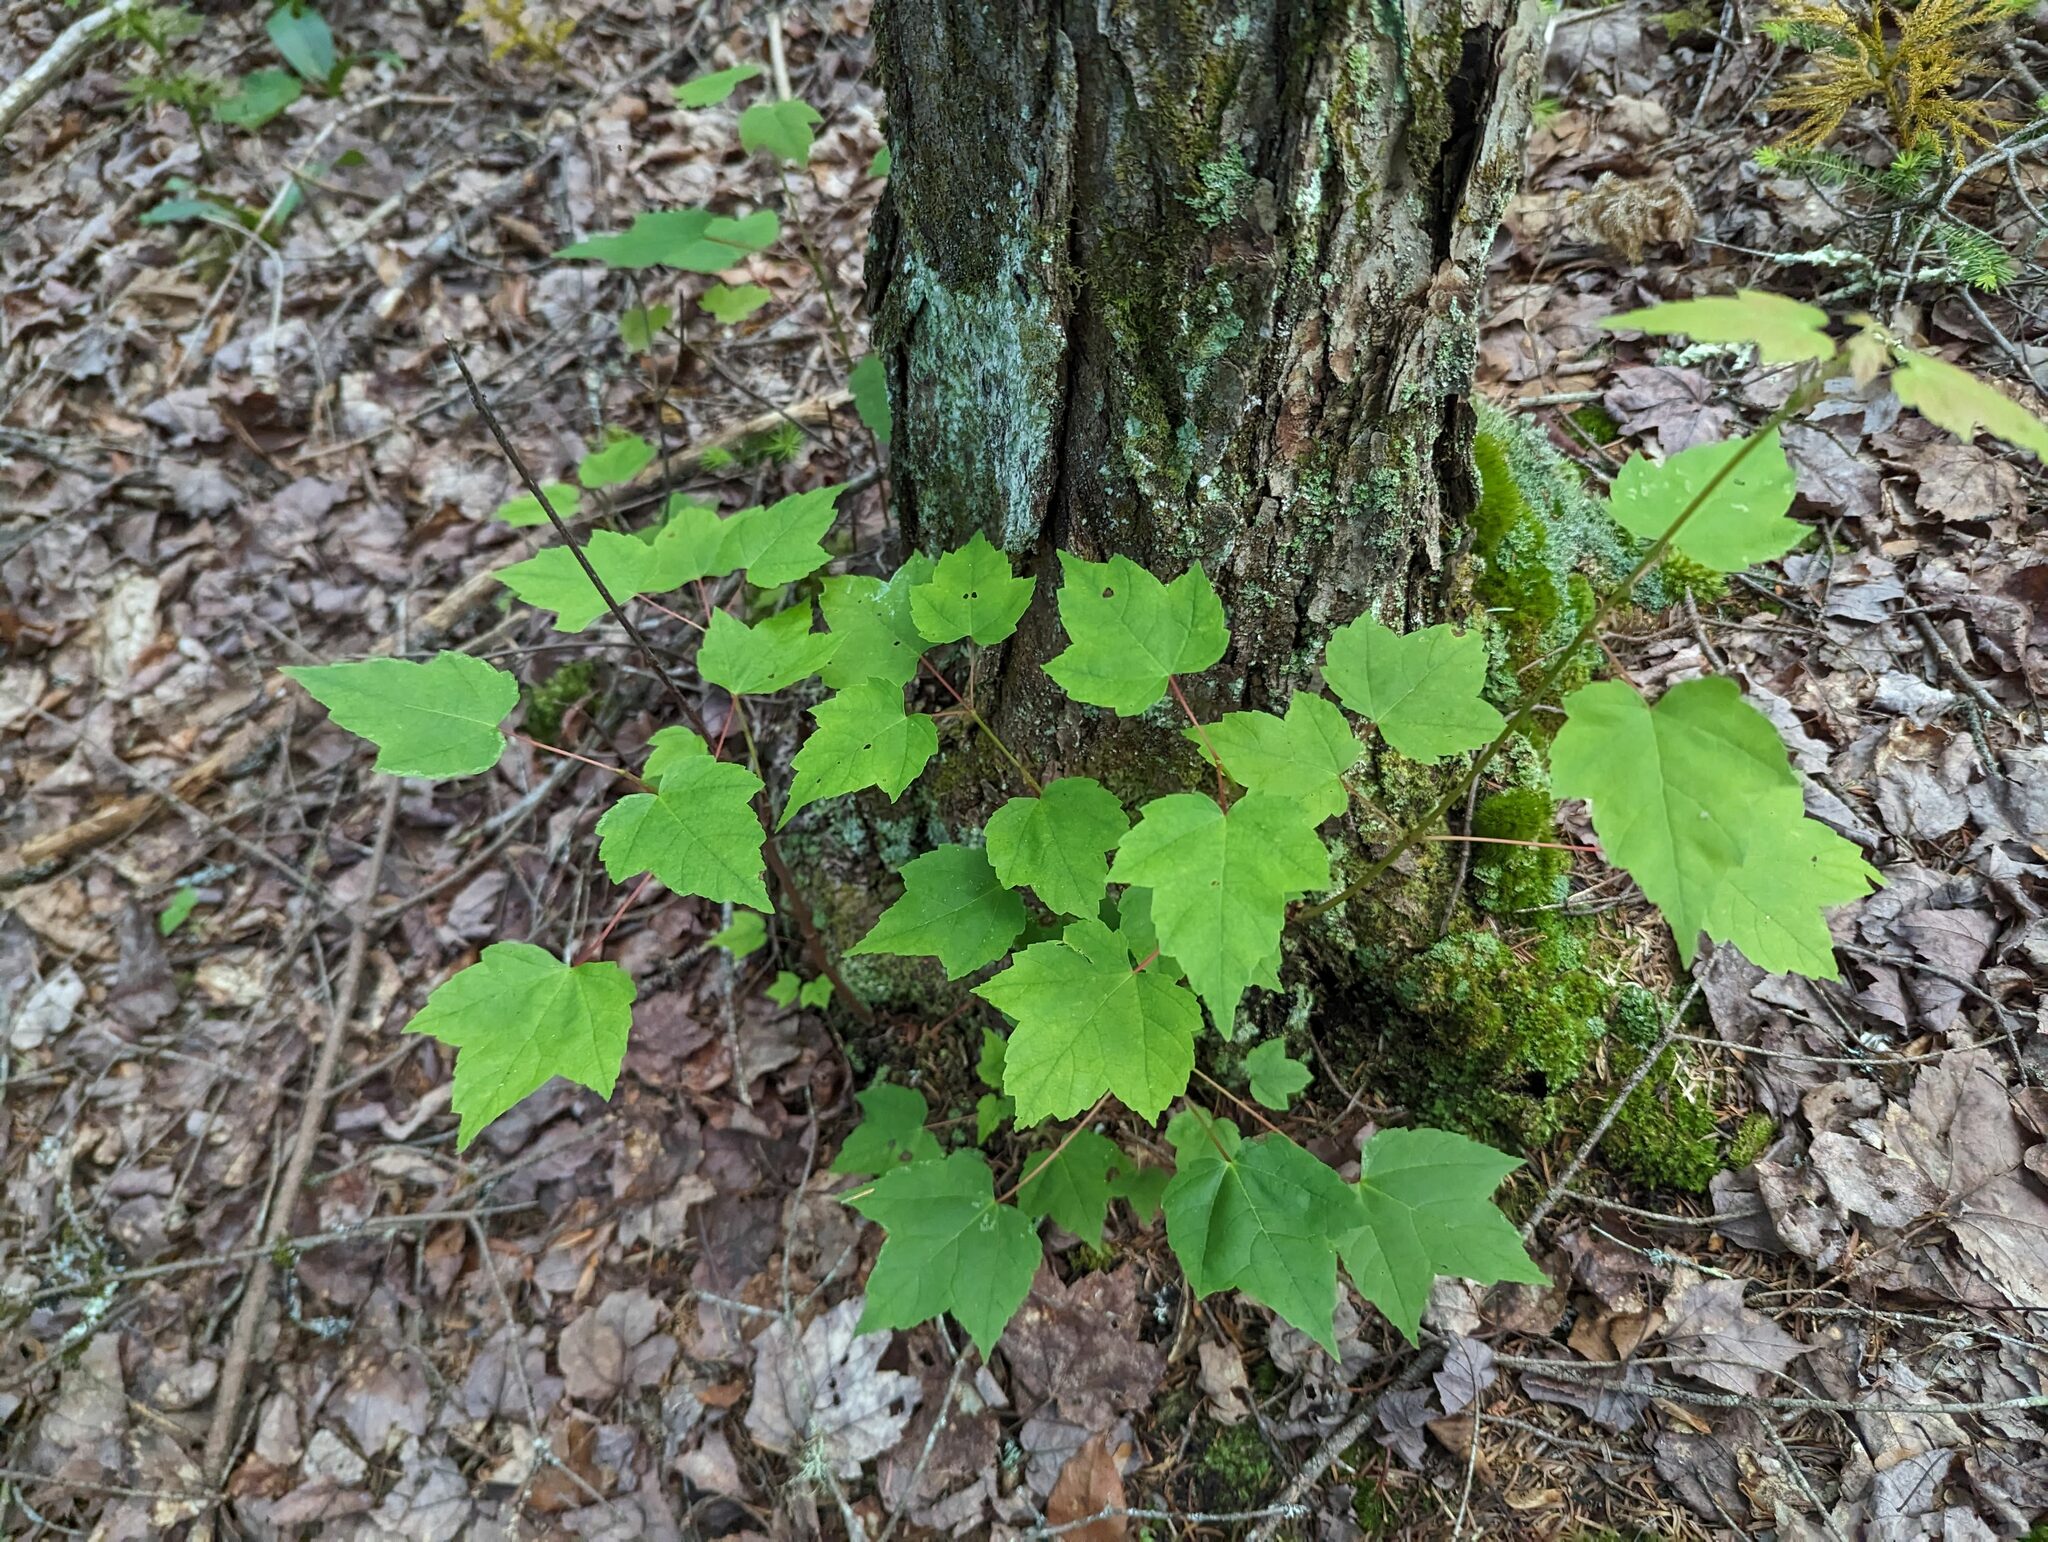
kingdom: Plantae
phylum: Tracheophyta
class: Magnoliopsida
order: Sapindales
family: Sapindaceae
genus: Acer
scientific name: Acer rubrum
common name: Red maple
